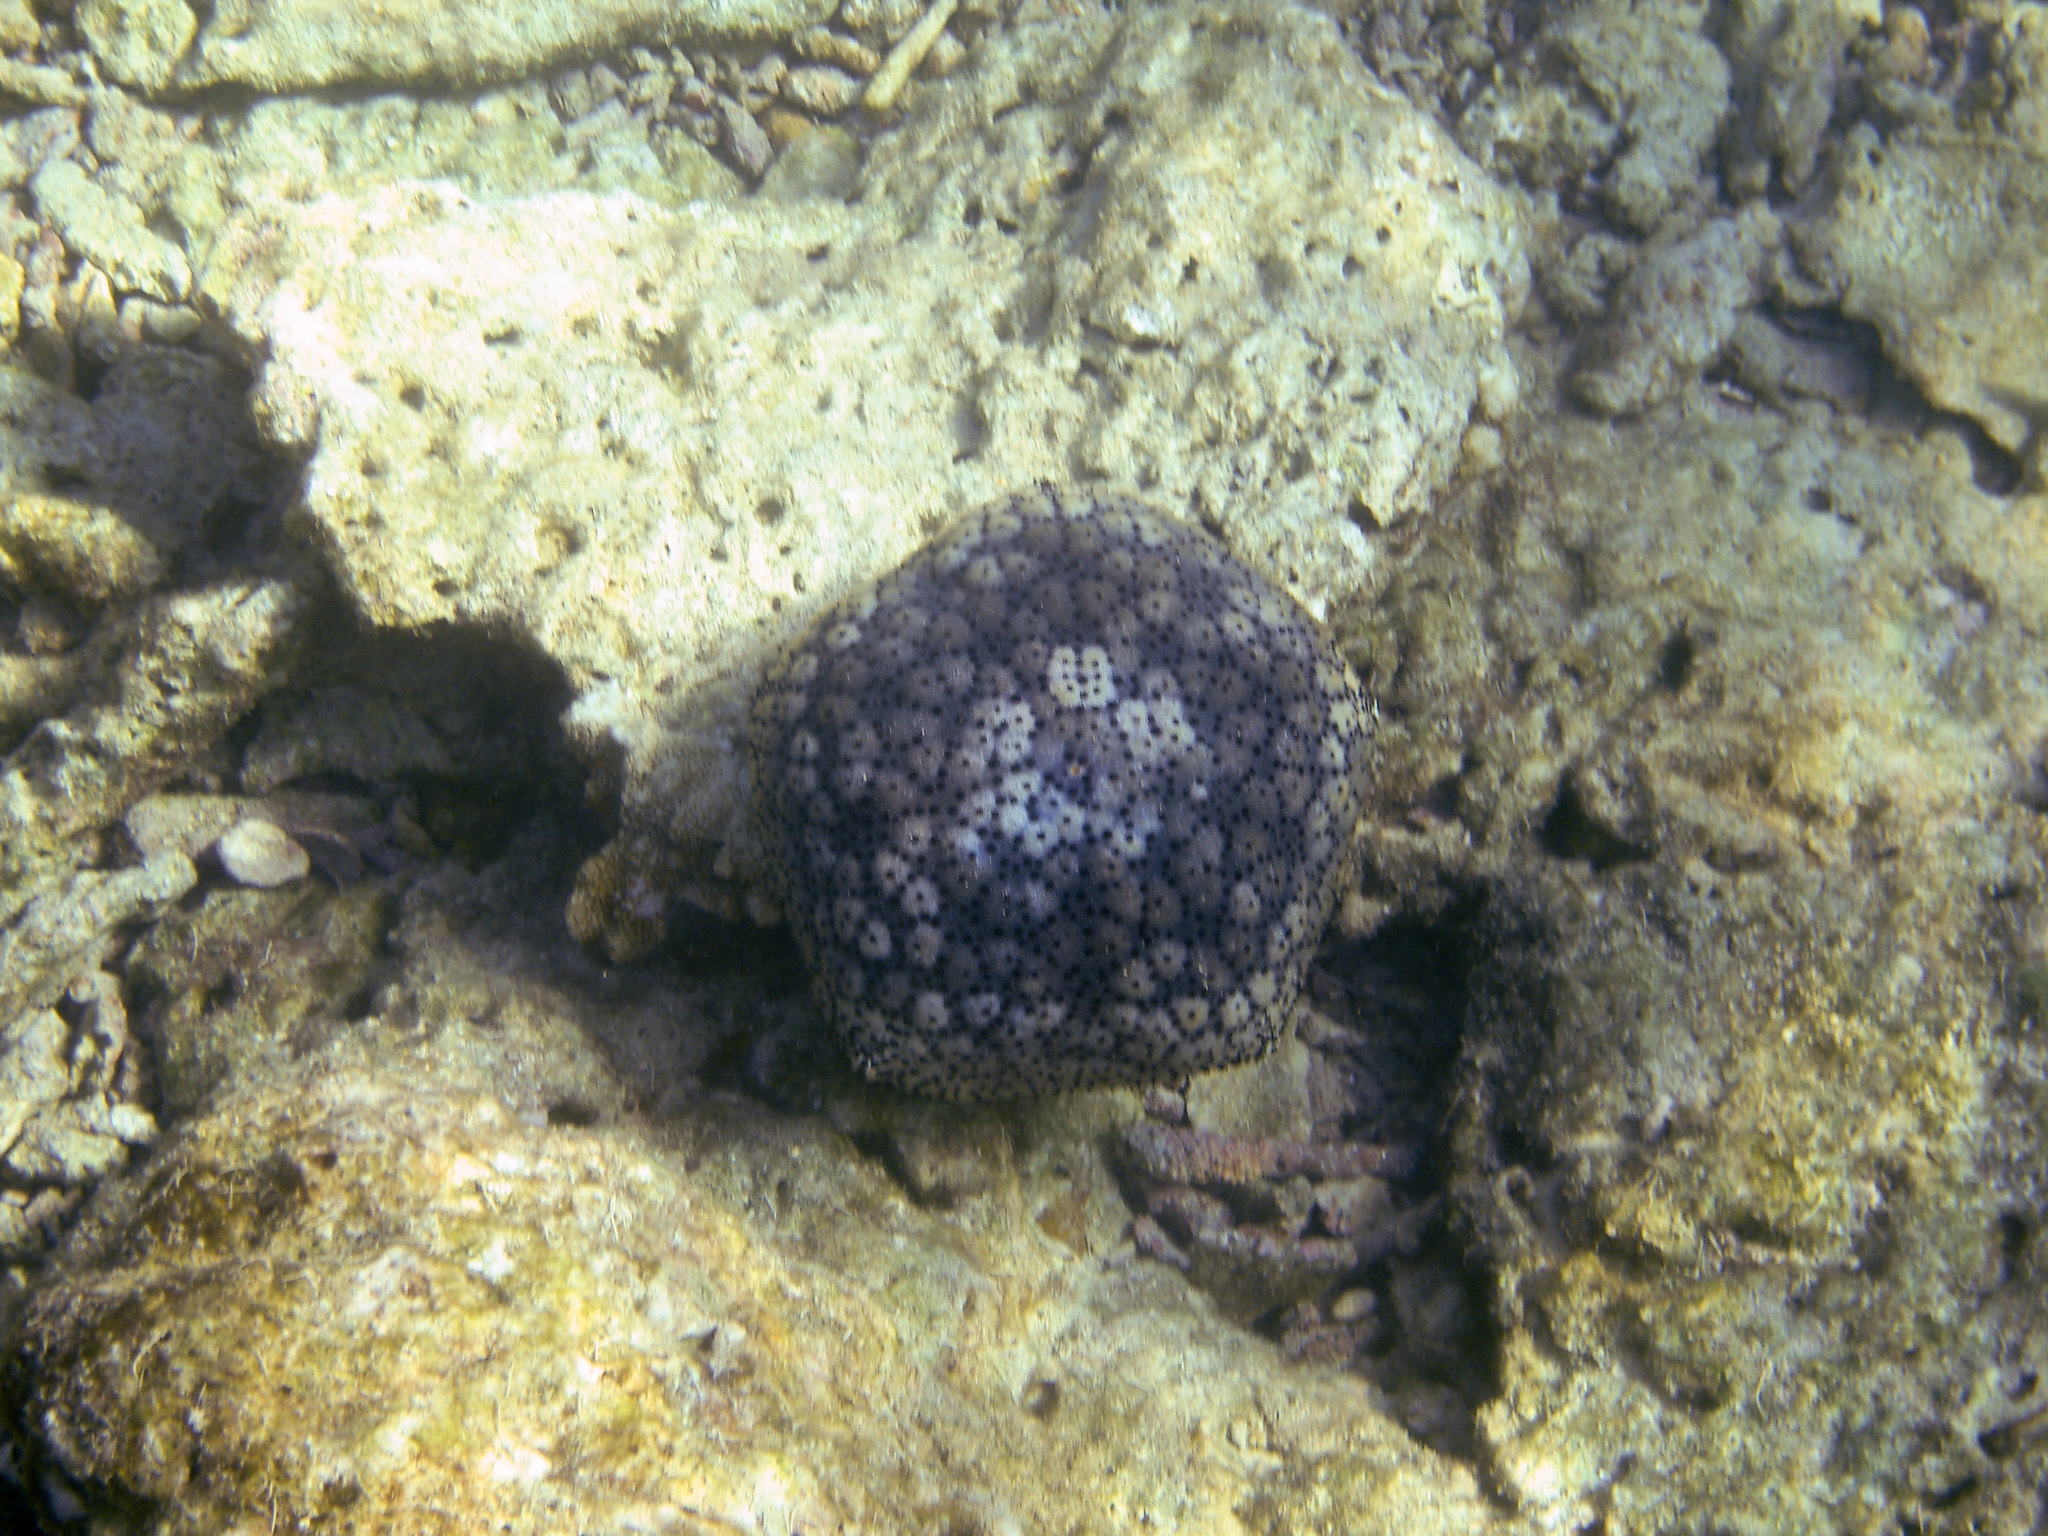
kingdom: Animalia
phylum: Echinodermata
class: Asteroidea
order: Valvatida
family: Oreasteridae
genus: Culcita
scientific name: Culcita novaeguineae
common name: Cushion star
